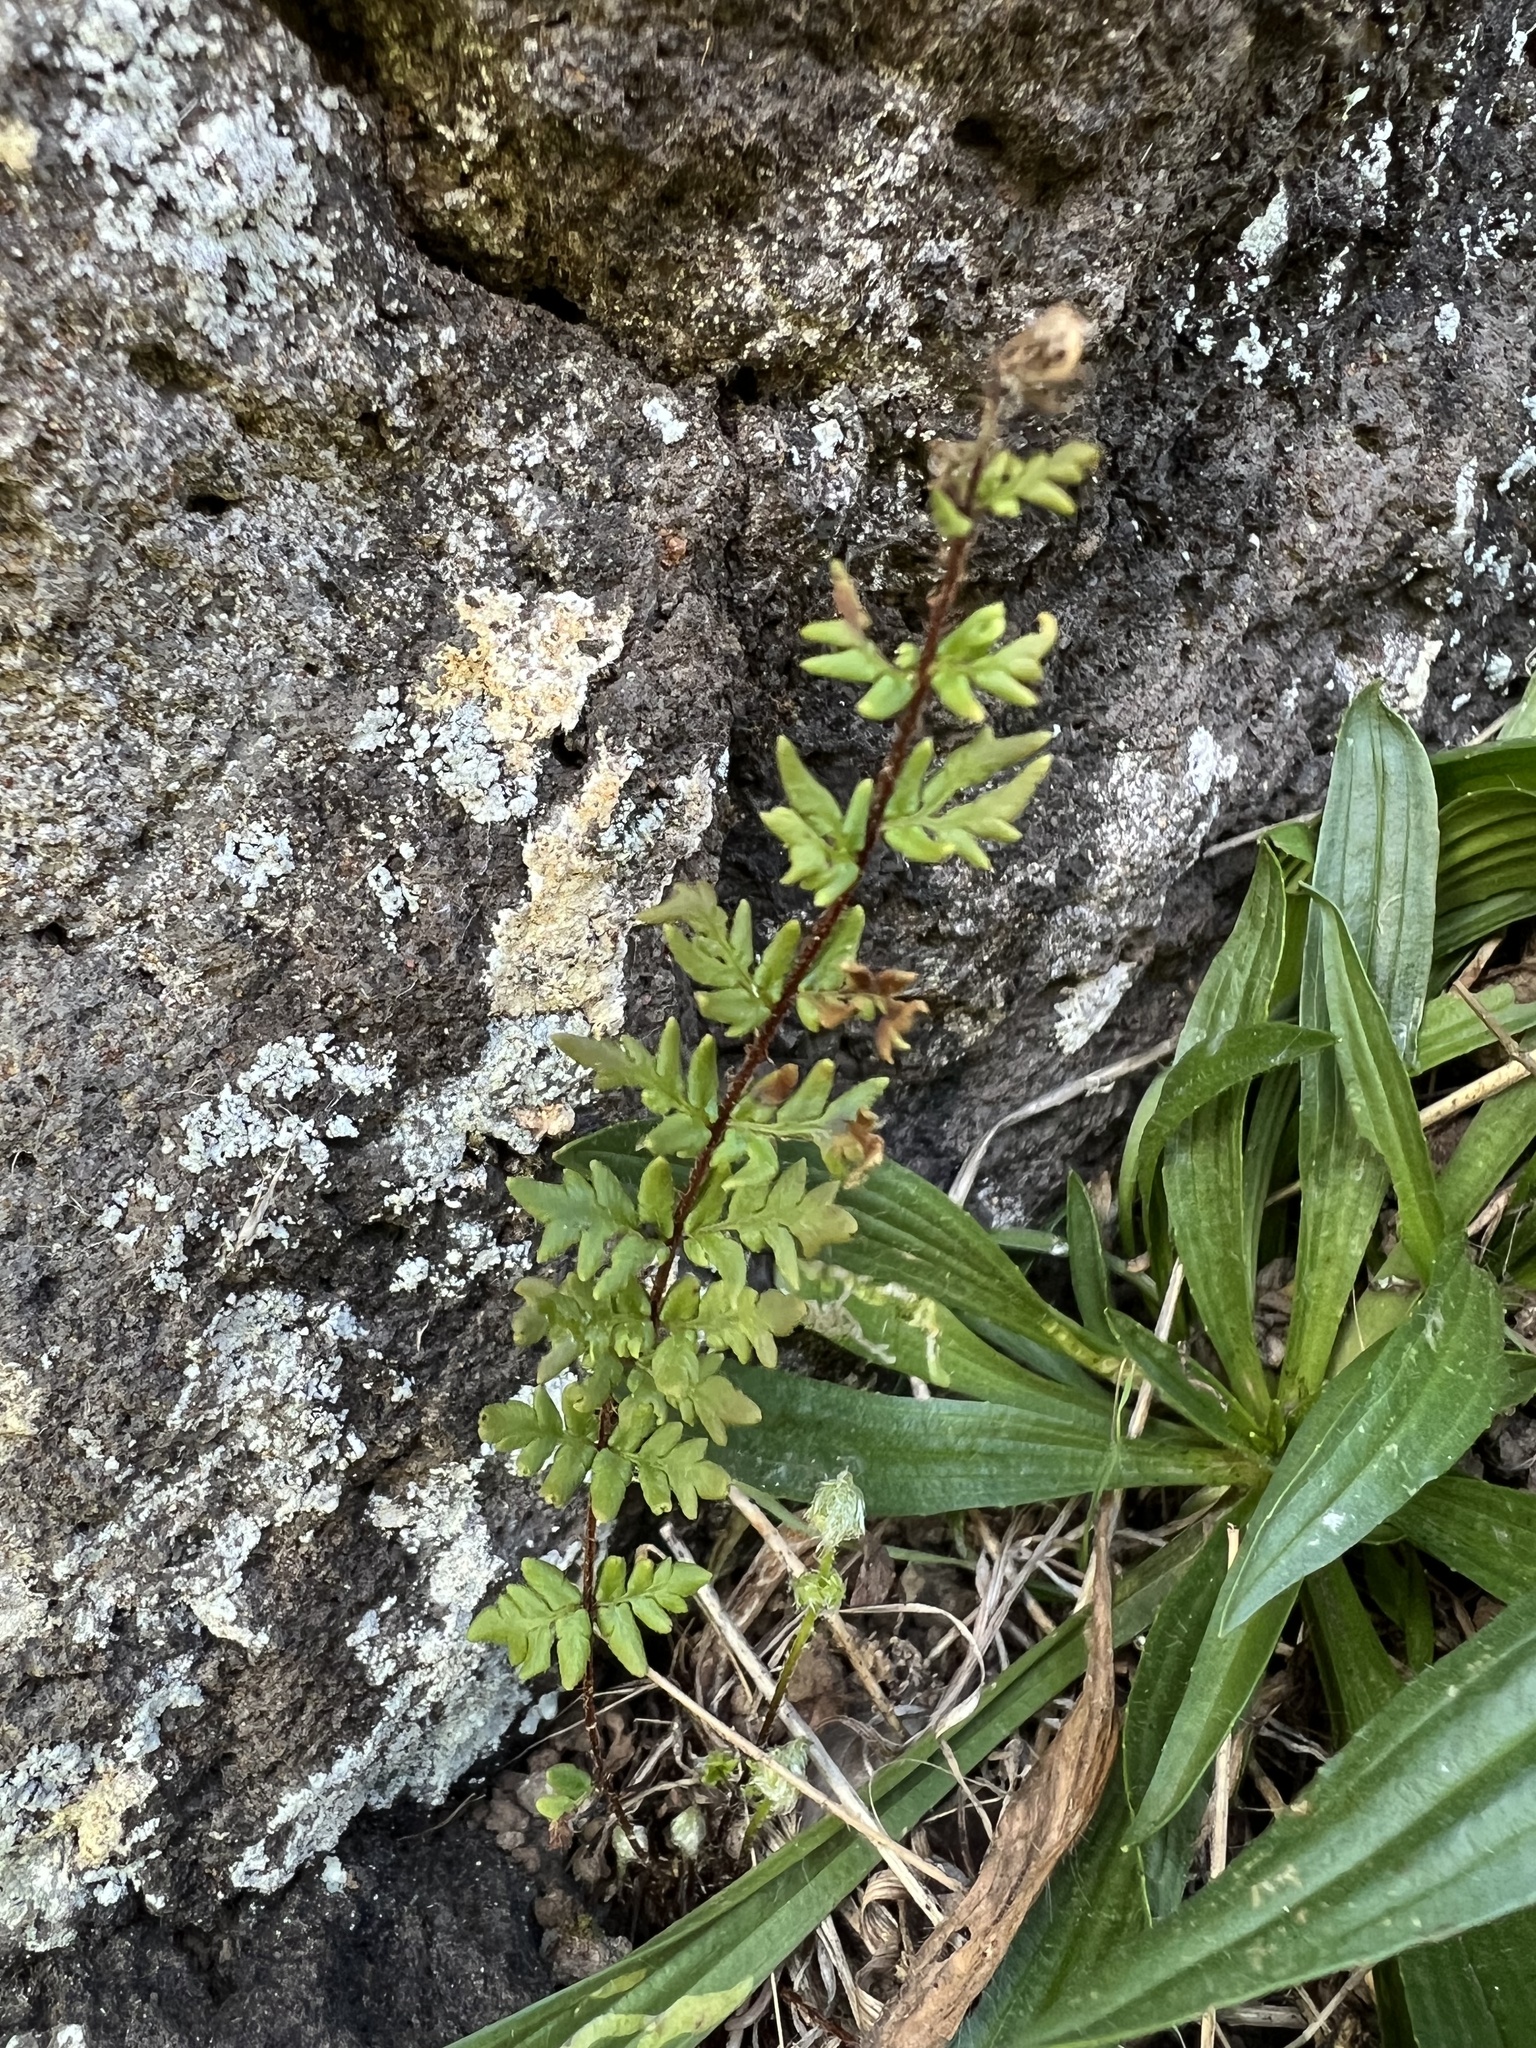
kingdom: Plantae
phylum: Tracheophyta
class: Polypodiopsida
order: Polypodiales
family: Pteridaceae
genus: Cheilanthes
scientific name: Cheilanthes distans
